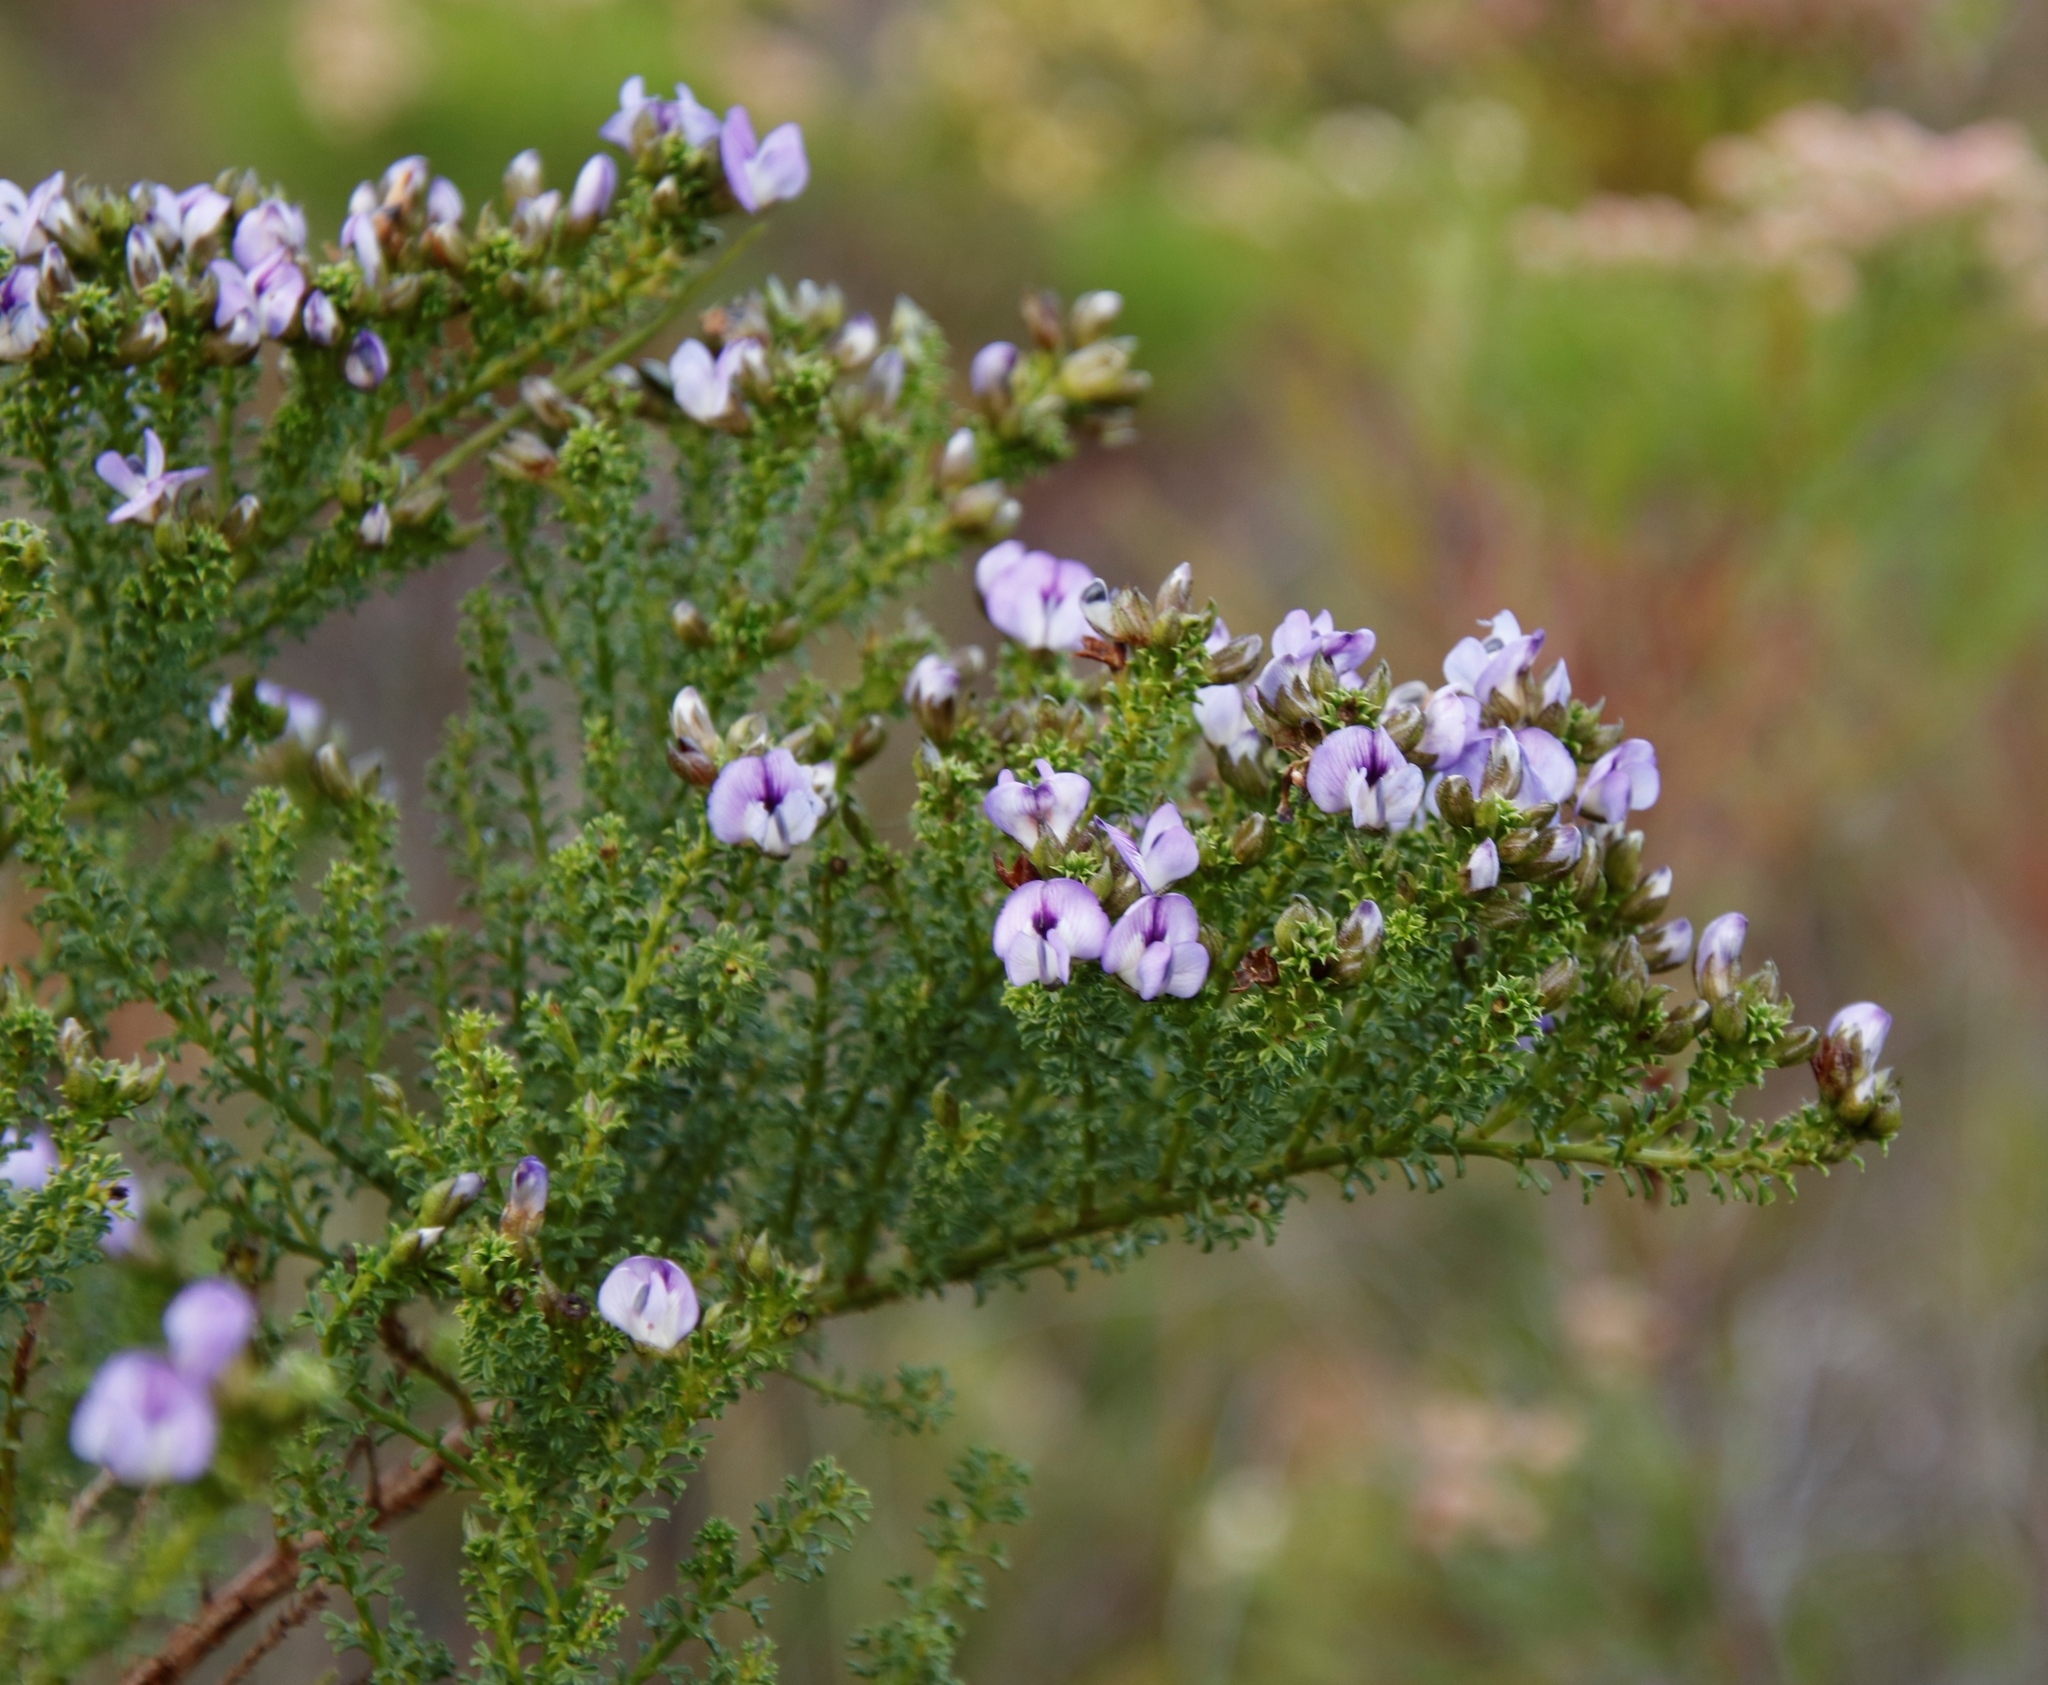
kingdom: Plantae
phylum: Tracheophyta
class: Magnoliopsida
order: Fabales
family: Fabaceae
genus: Psoralea
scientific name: Psoralea aculeata
